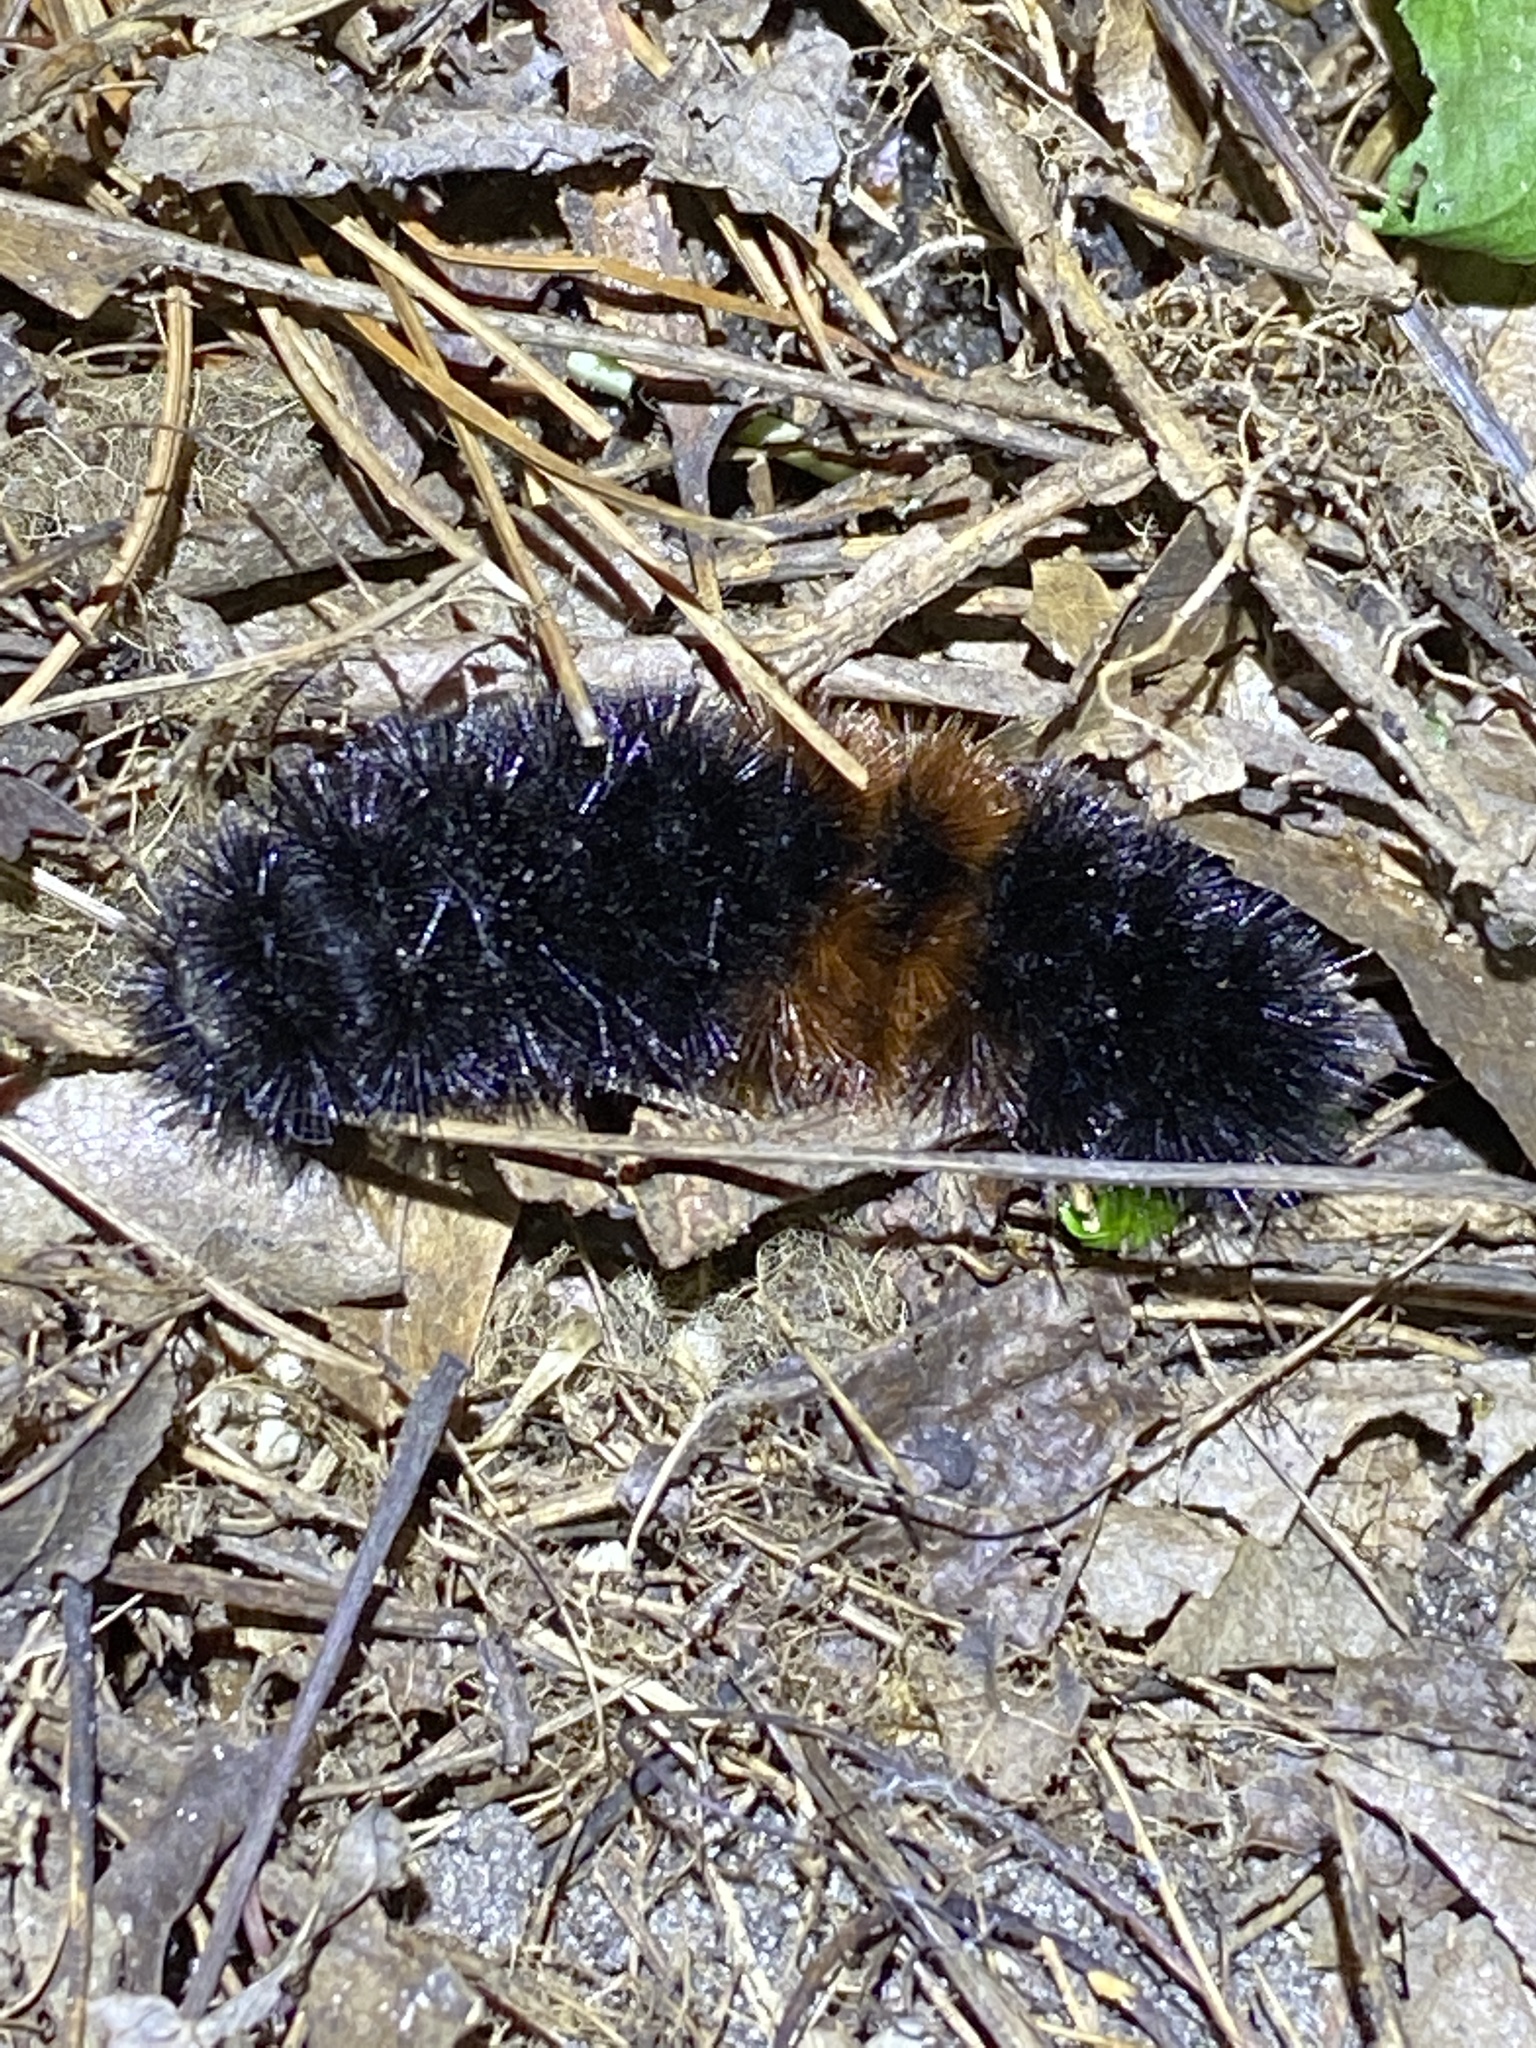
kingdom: Animalia
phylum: Arthropoda
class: Insecta
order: Lepidoptera
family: Erebidae
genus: Pyrrharctia
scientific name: Pyrrharctia isabella
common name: Isabella tiger moth
